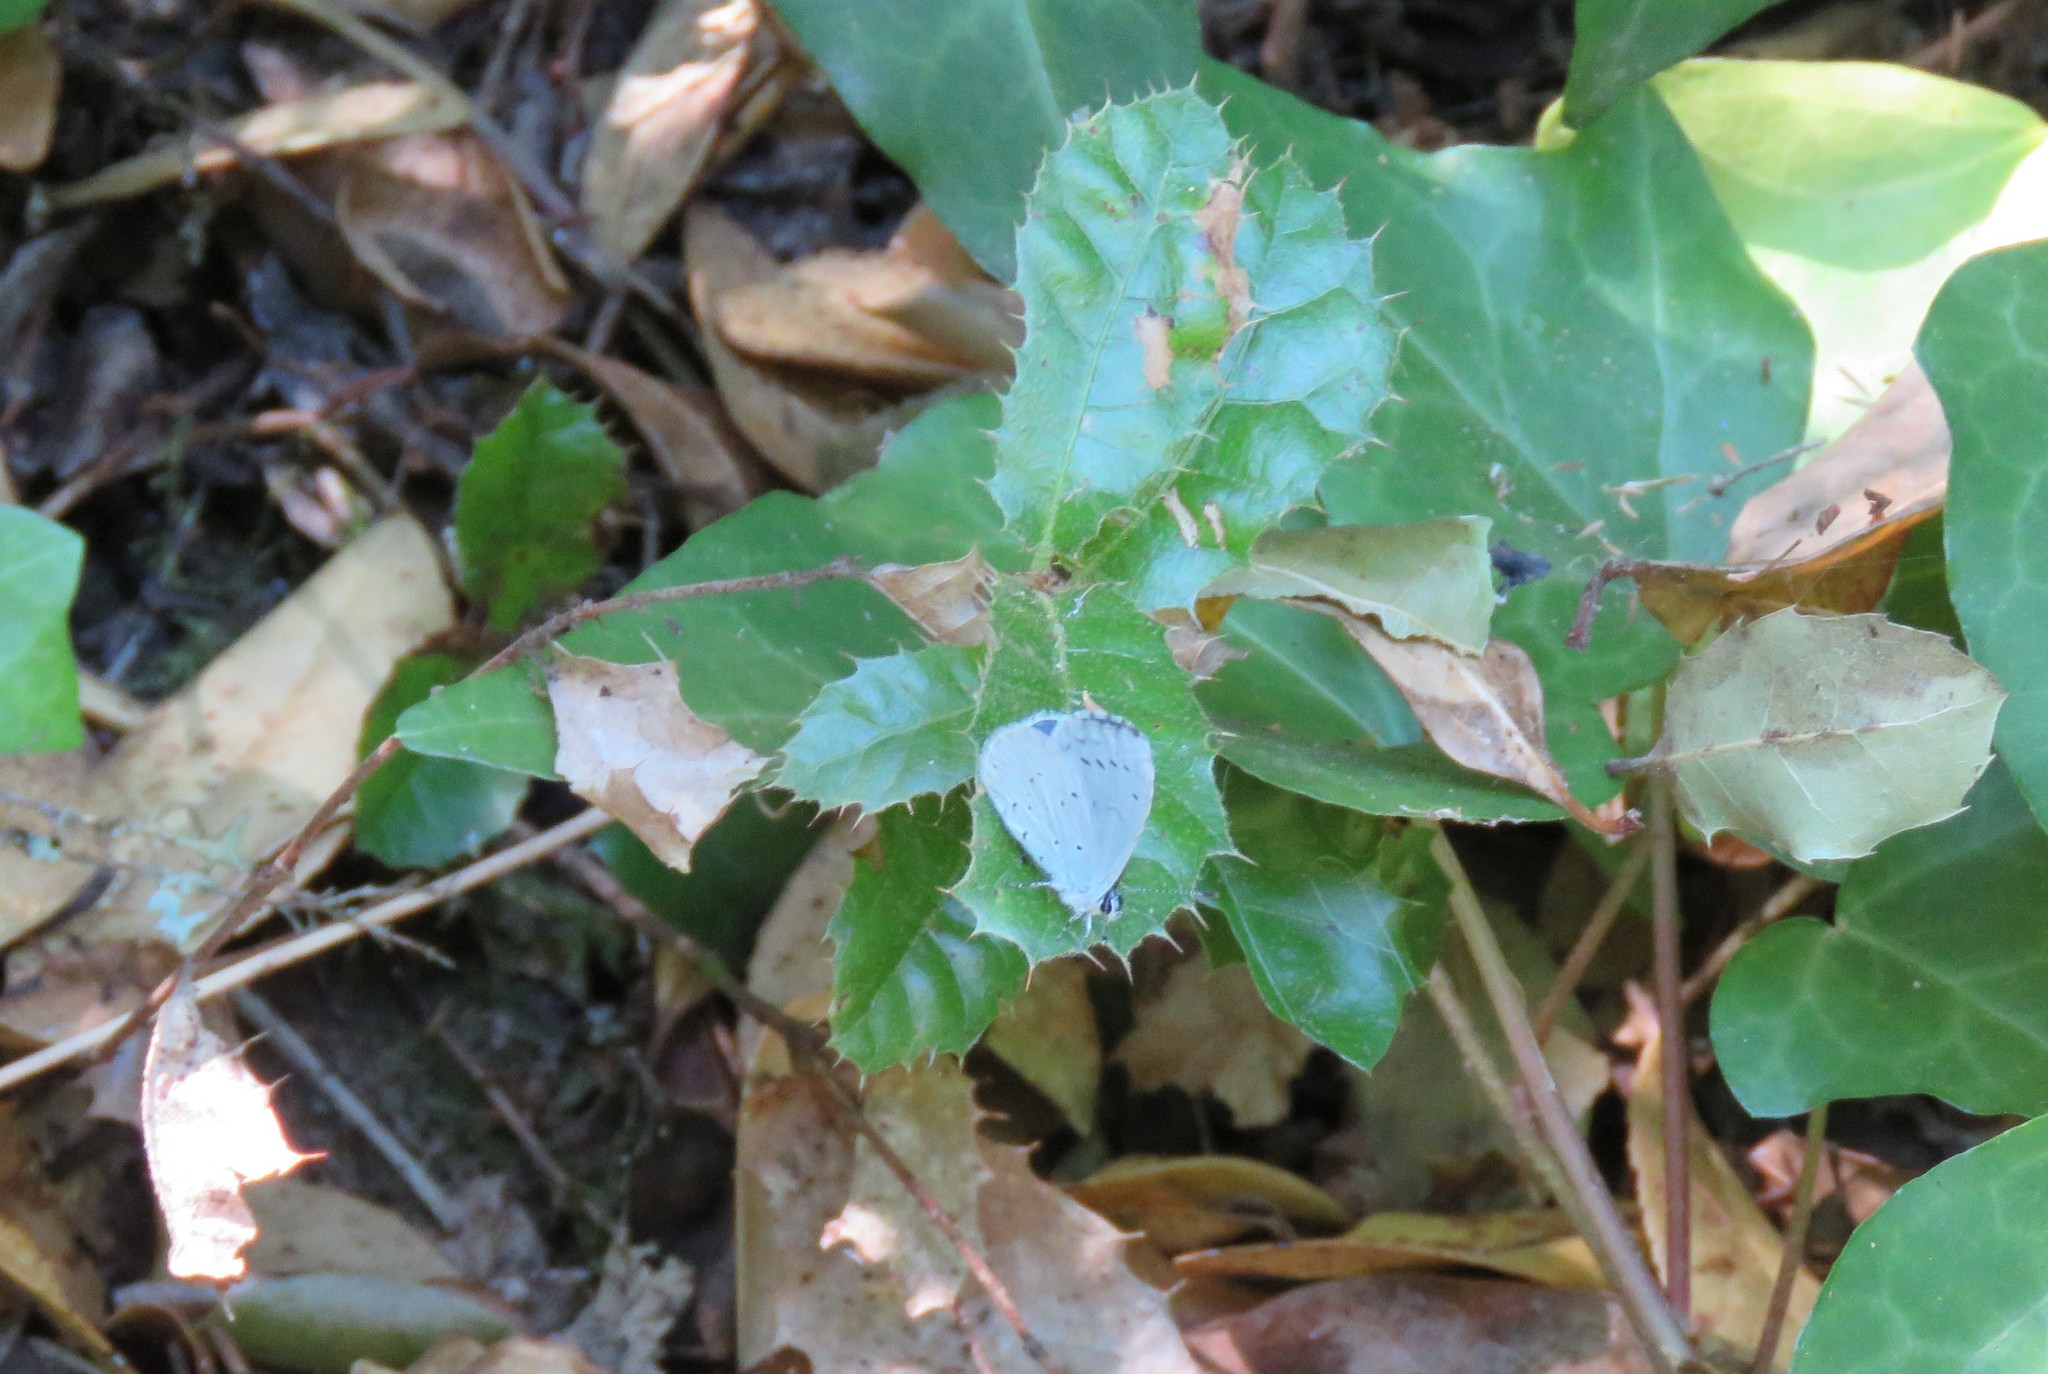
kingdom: Animalia
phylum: Arthropoda
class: Insecta
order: Lepidoptera
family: Lycaenidae
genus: Celastrina
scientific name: Celastrina argiolus
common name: Holly blue
